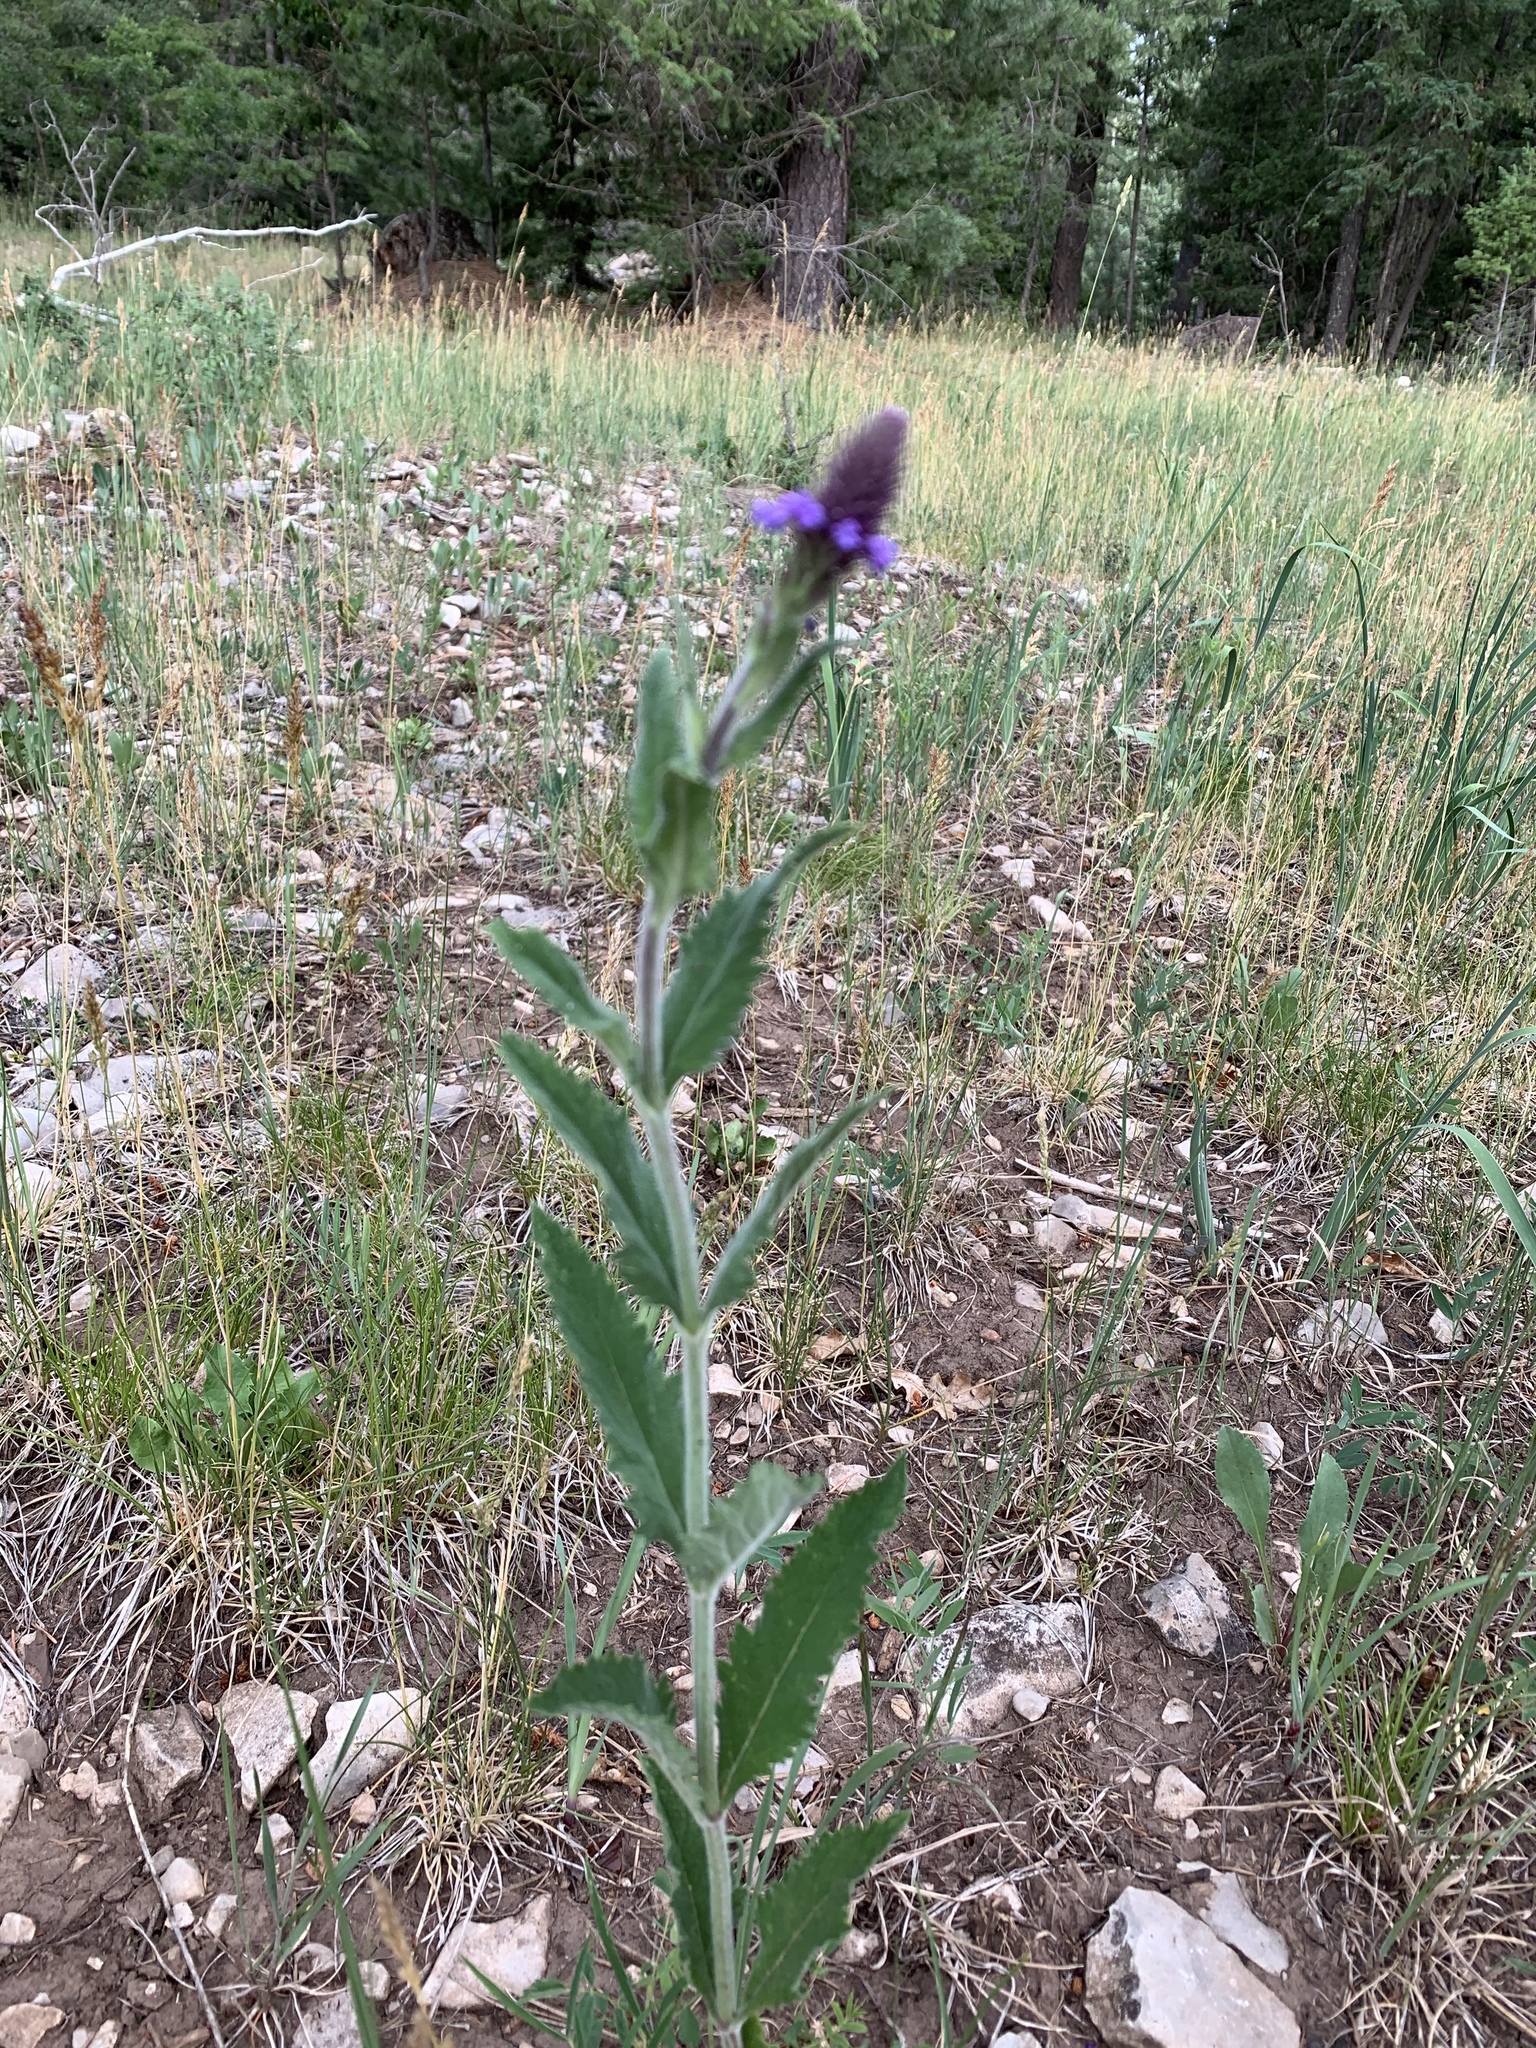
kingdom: Plantae
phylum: Tracheophyta
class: Magnoliopsida
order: Lamiales
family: Verbenaceae
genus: Verbena
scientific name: Verbena macdougalii
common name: New mexico vervain
